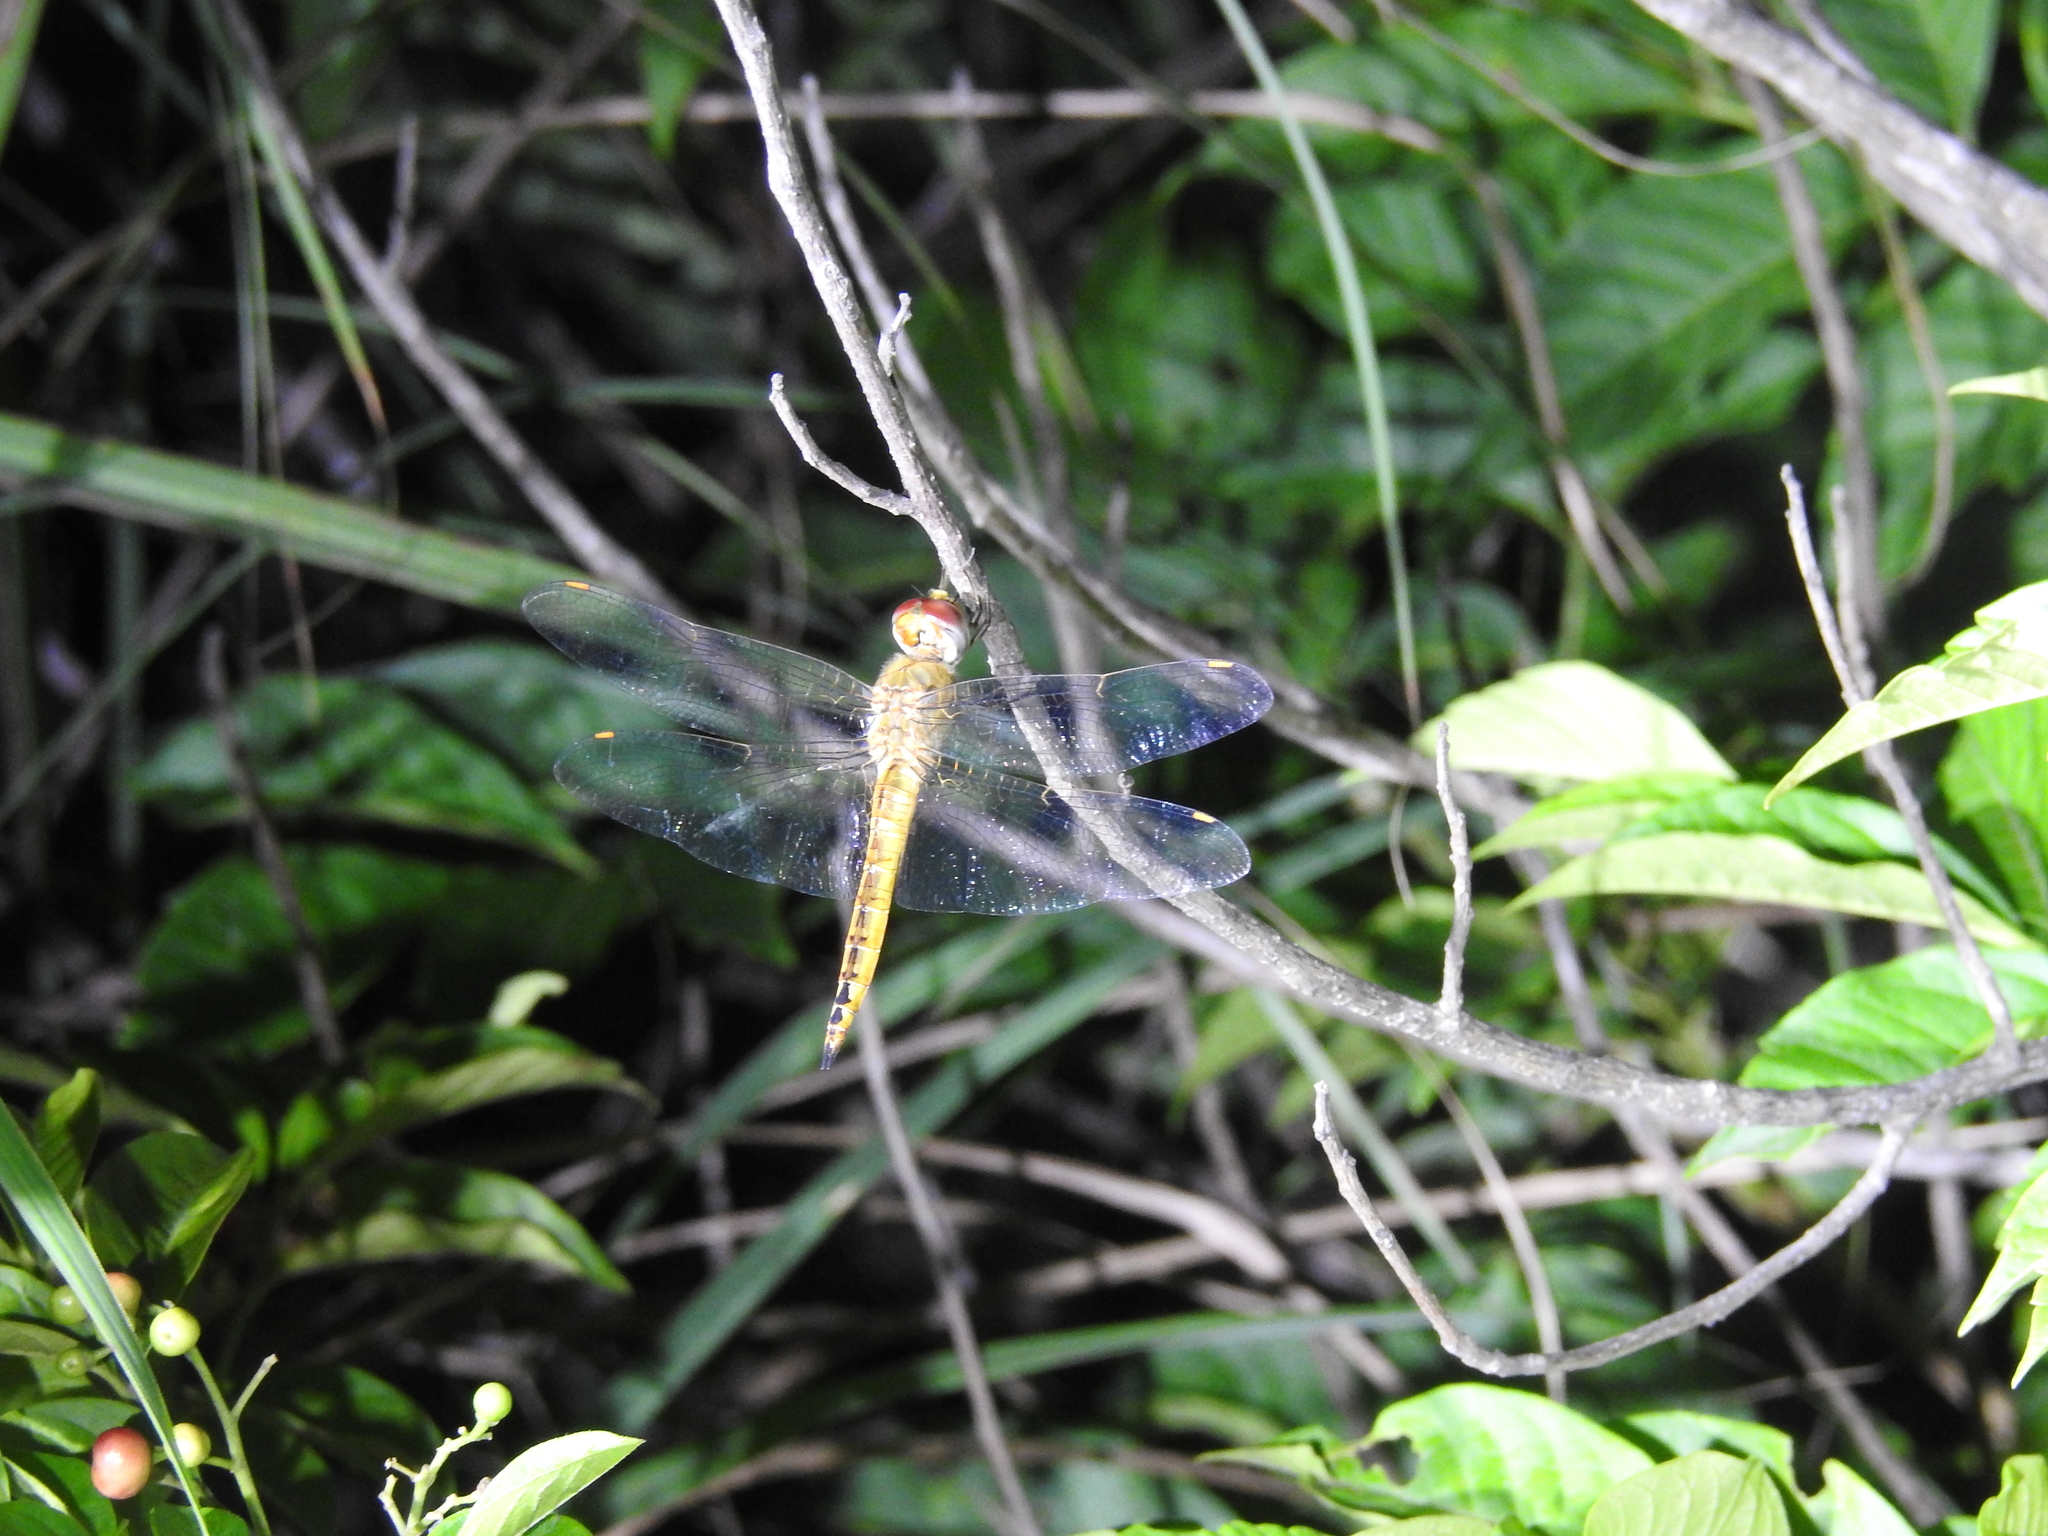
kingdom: Animalia
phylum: Arthropoda
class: Insecta
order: Odonata
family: Libellulidae
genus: Pantala
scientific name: Pantala flavescens
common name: Wandering glider
